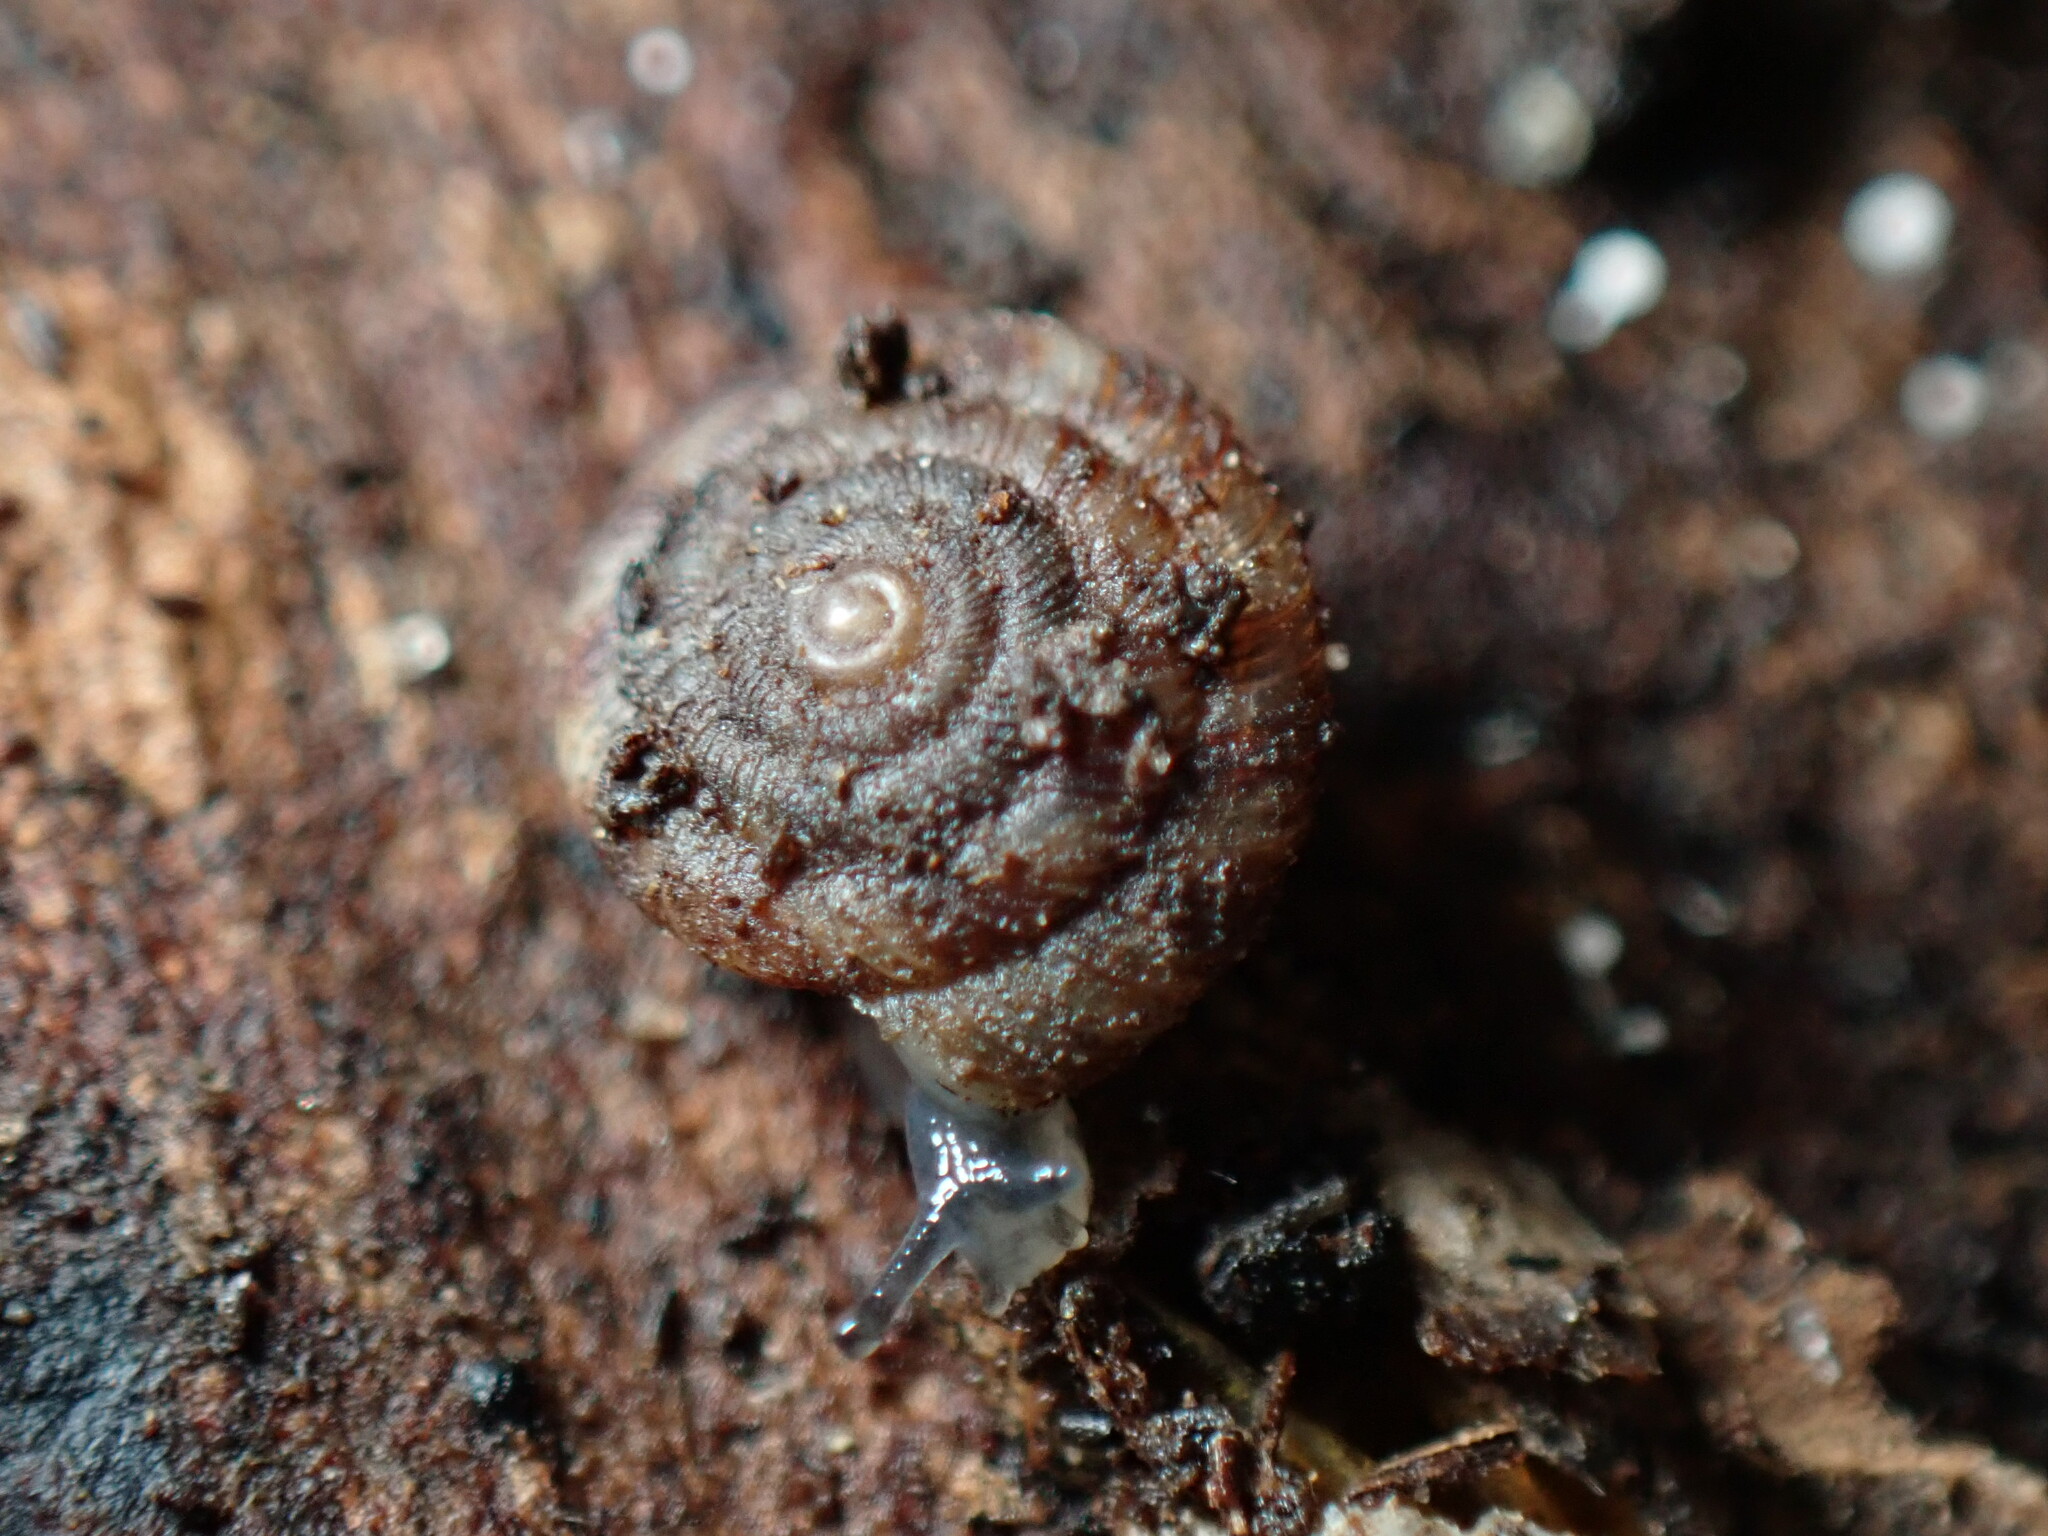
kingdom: Animalia
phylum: Mollusca
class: Gastropoda
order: Stylommatophora
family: Discidae
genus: Discus
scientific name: Discus rotundatus
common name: Rounded snail
